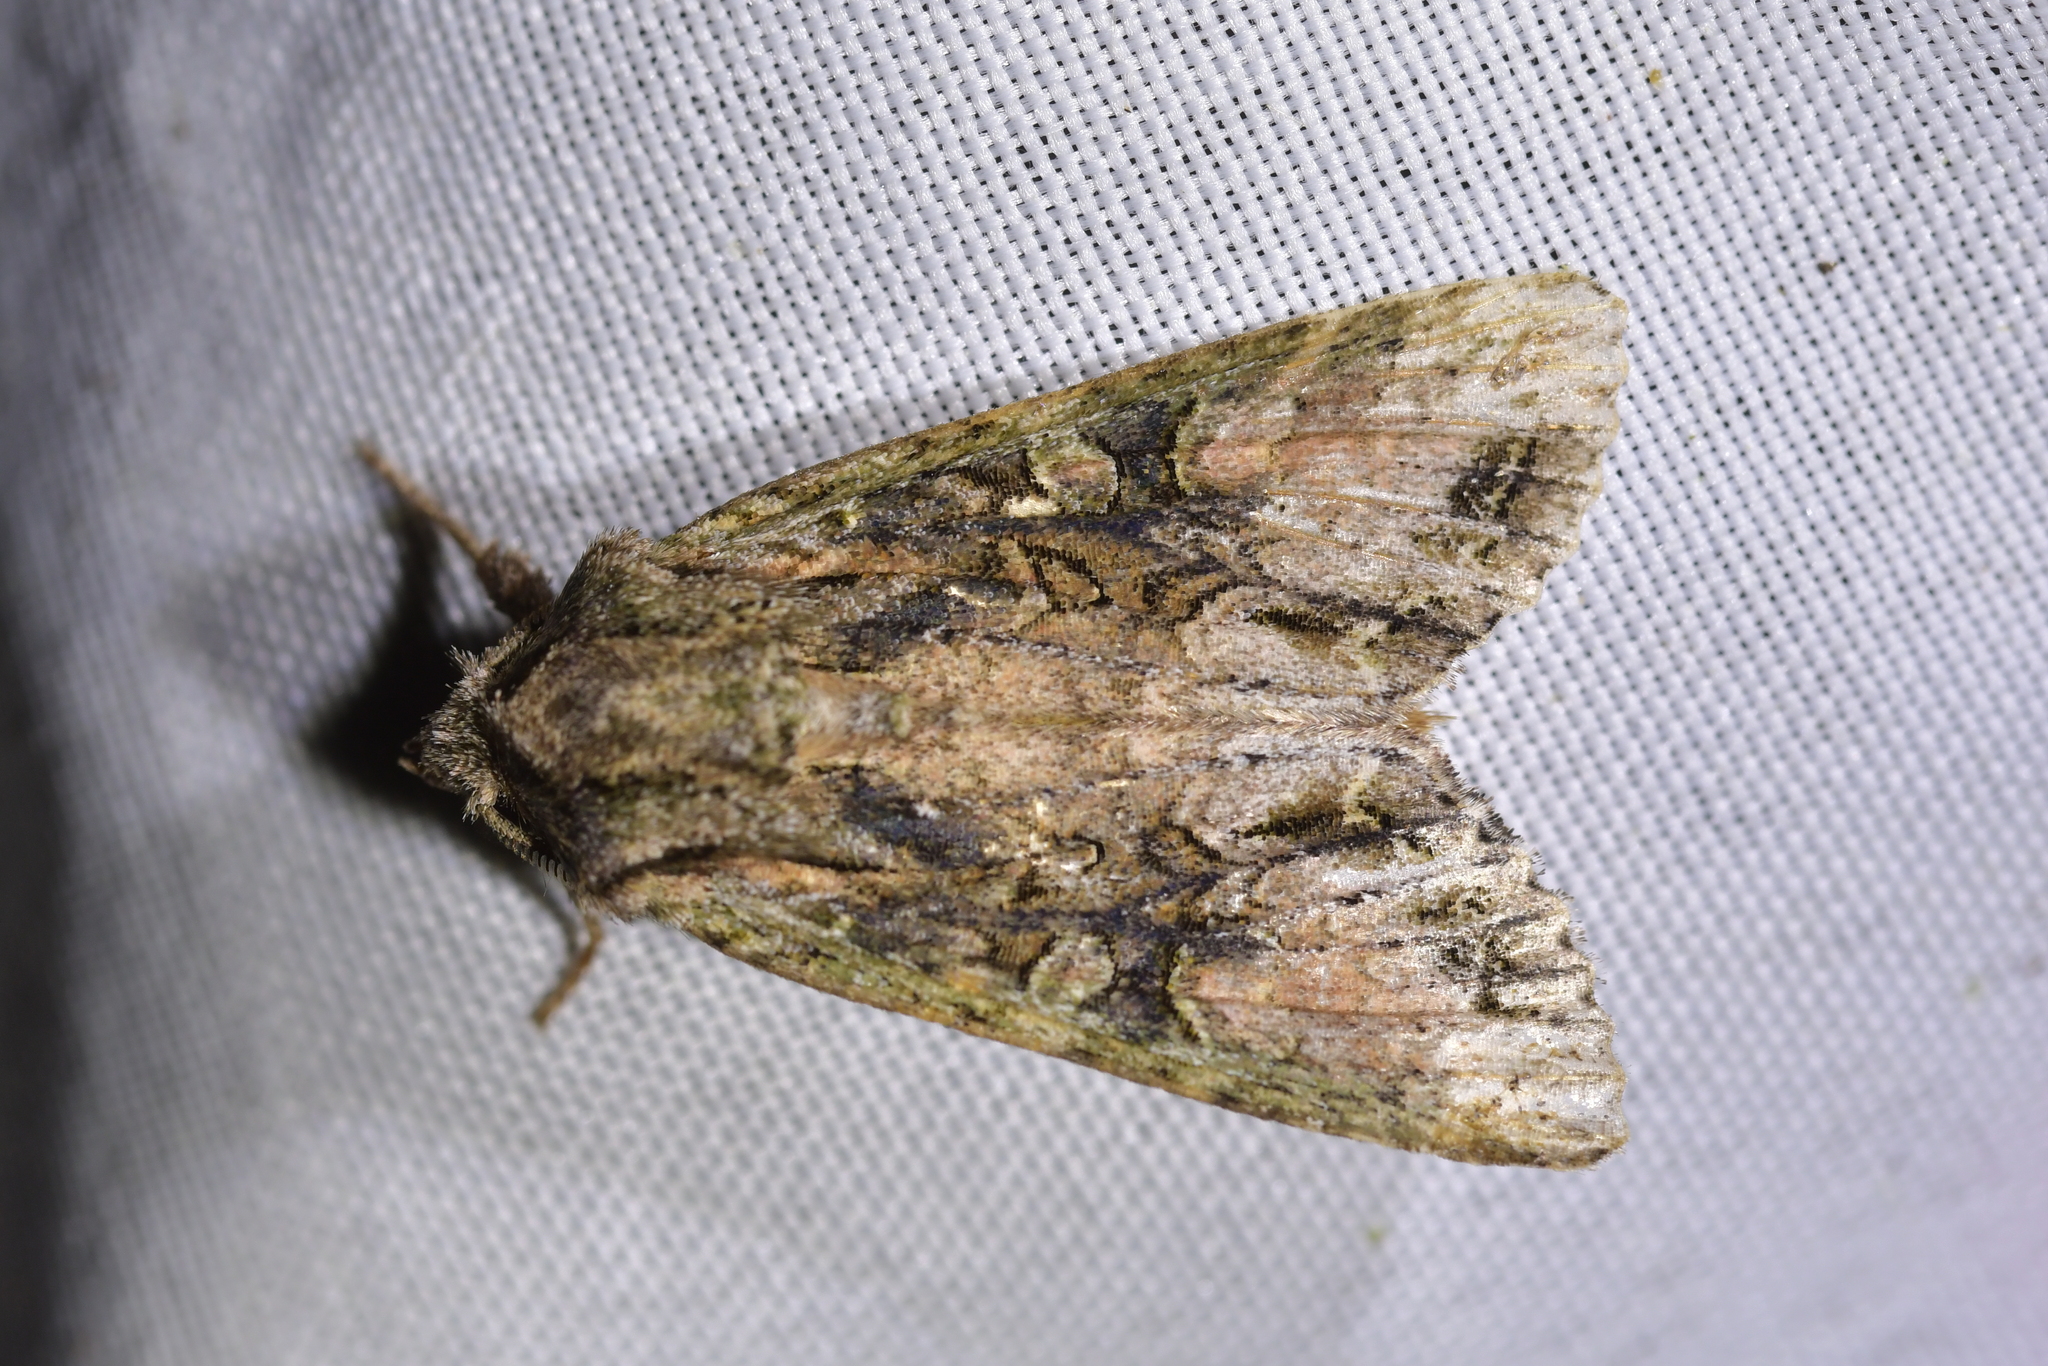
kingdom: Animalia
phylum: Arthropoda
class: Insecta
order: Lepidoptera
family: Noctuidae
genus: Ichneutica
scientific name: Ichneutica mutans
